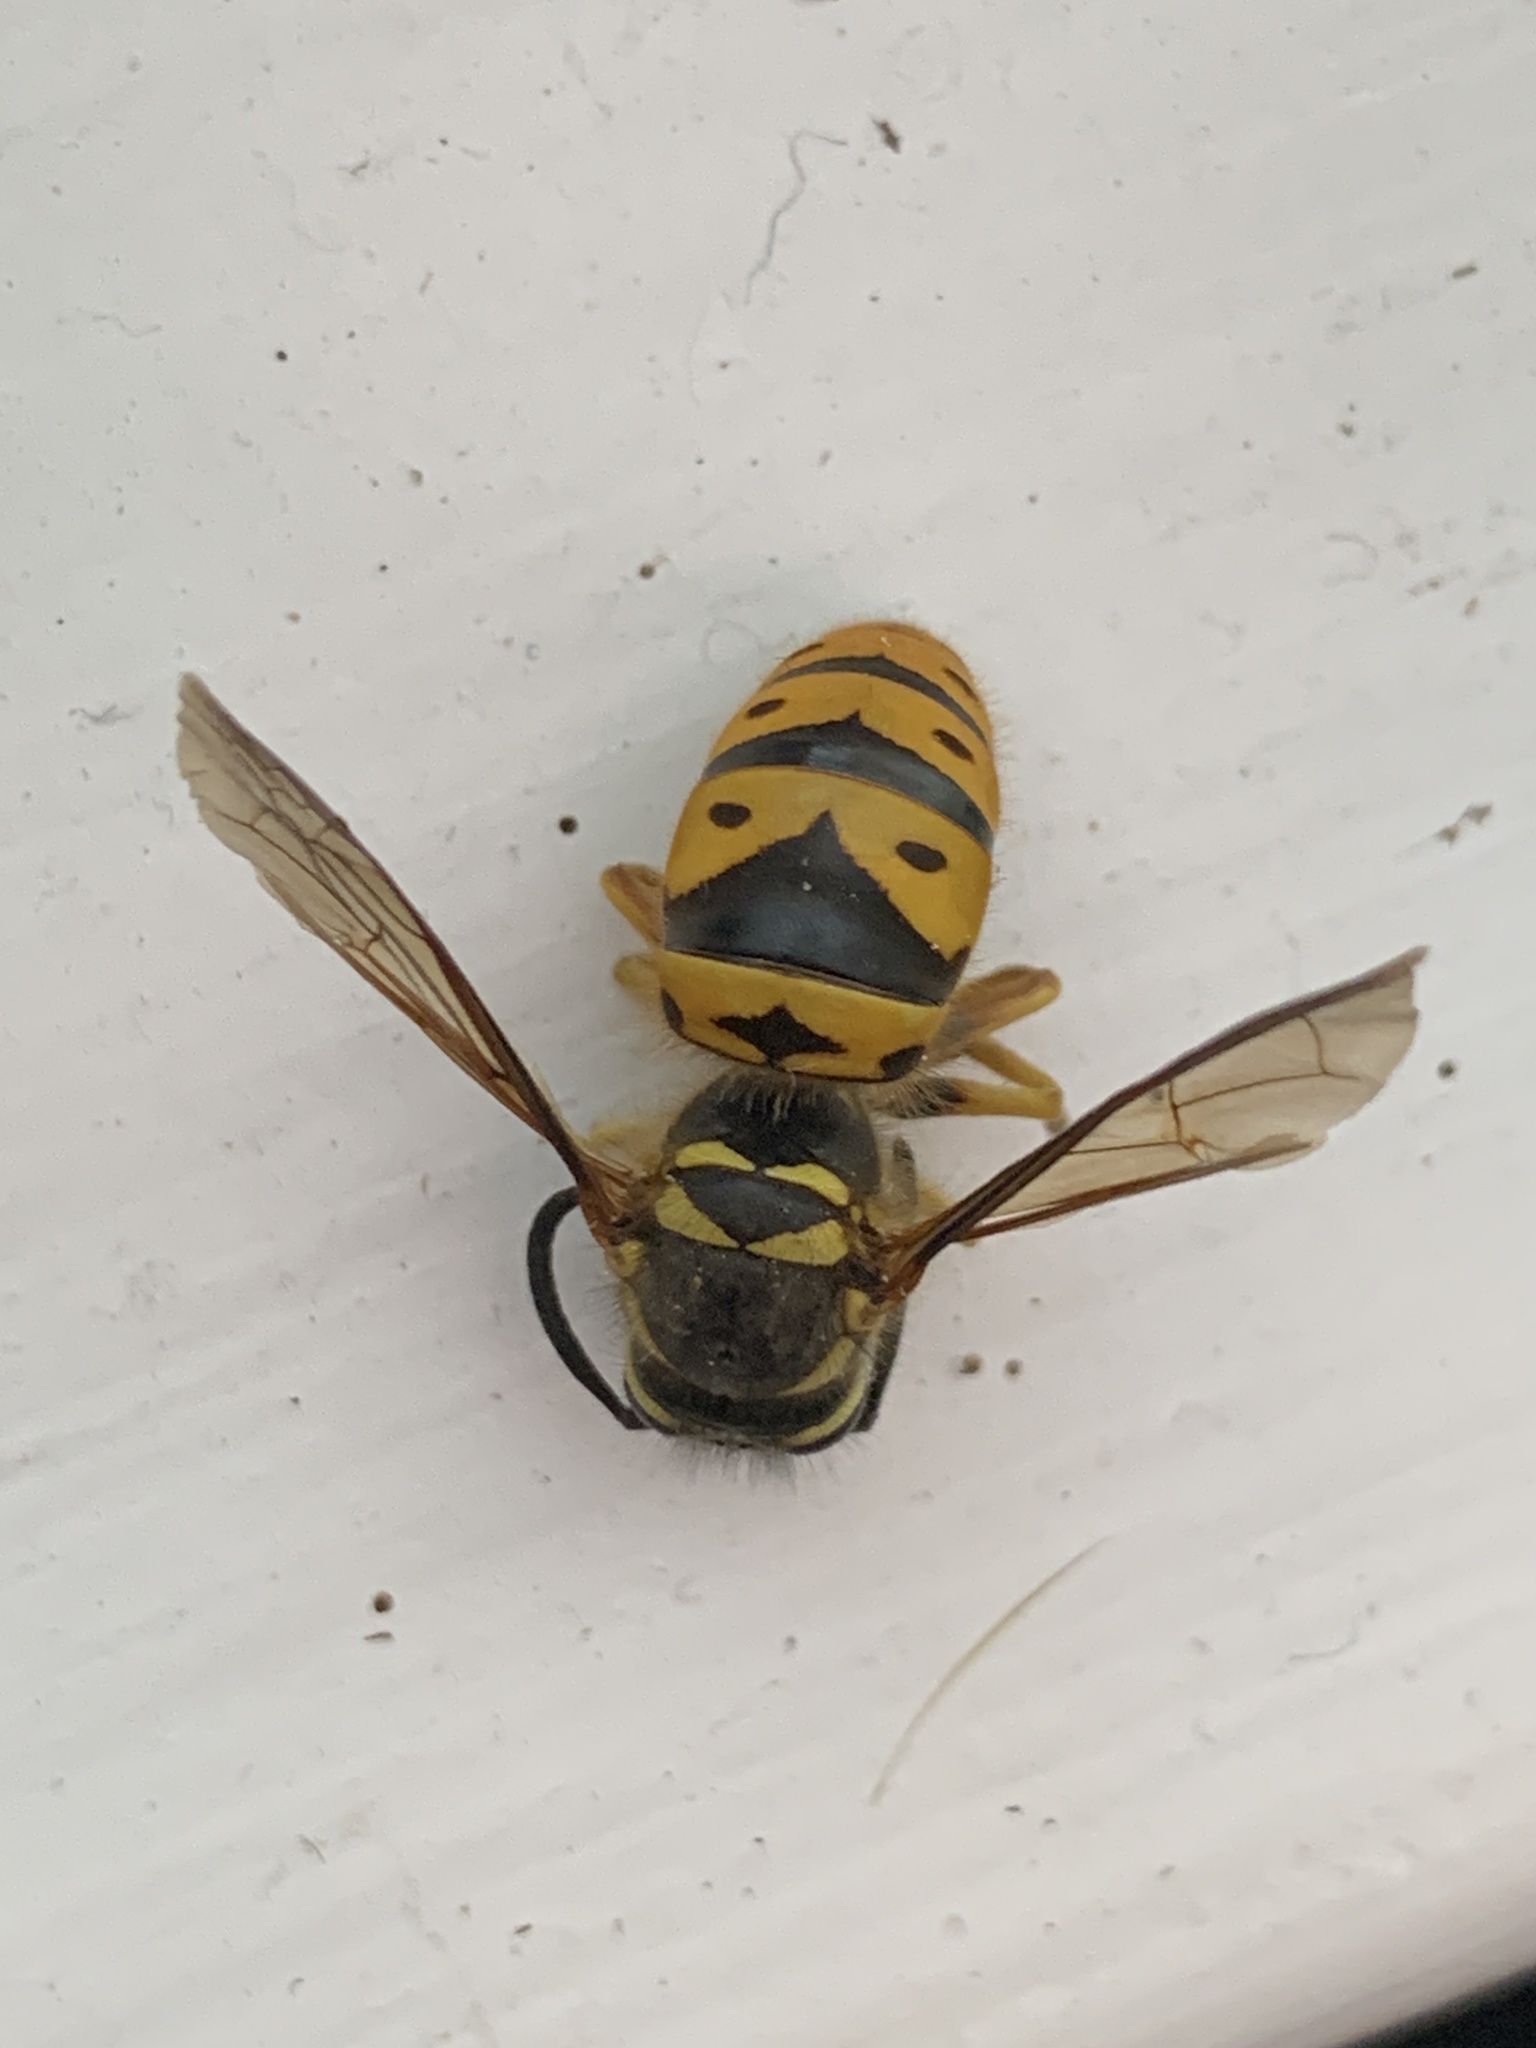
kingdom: Animalia
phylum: Arthropoda
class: Insecta
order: Hymenoptera
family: Vespidae
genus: Vespula
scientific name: Vespula maculifrons
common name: Eastern yellowjacket
